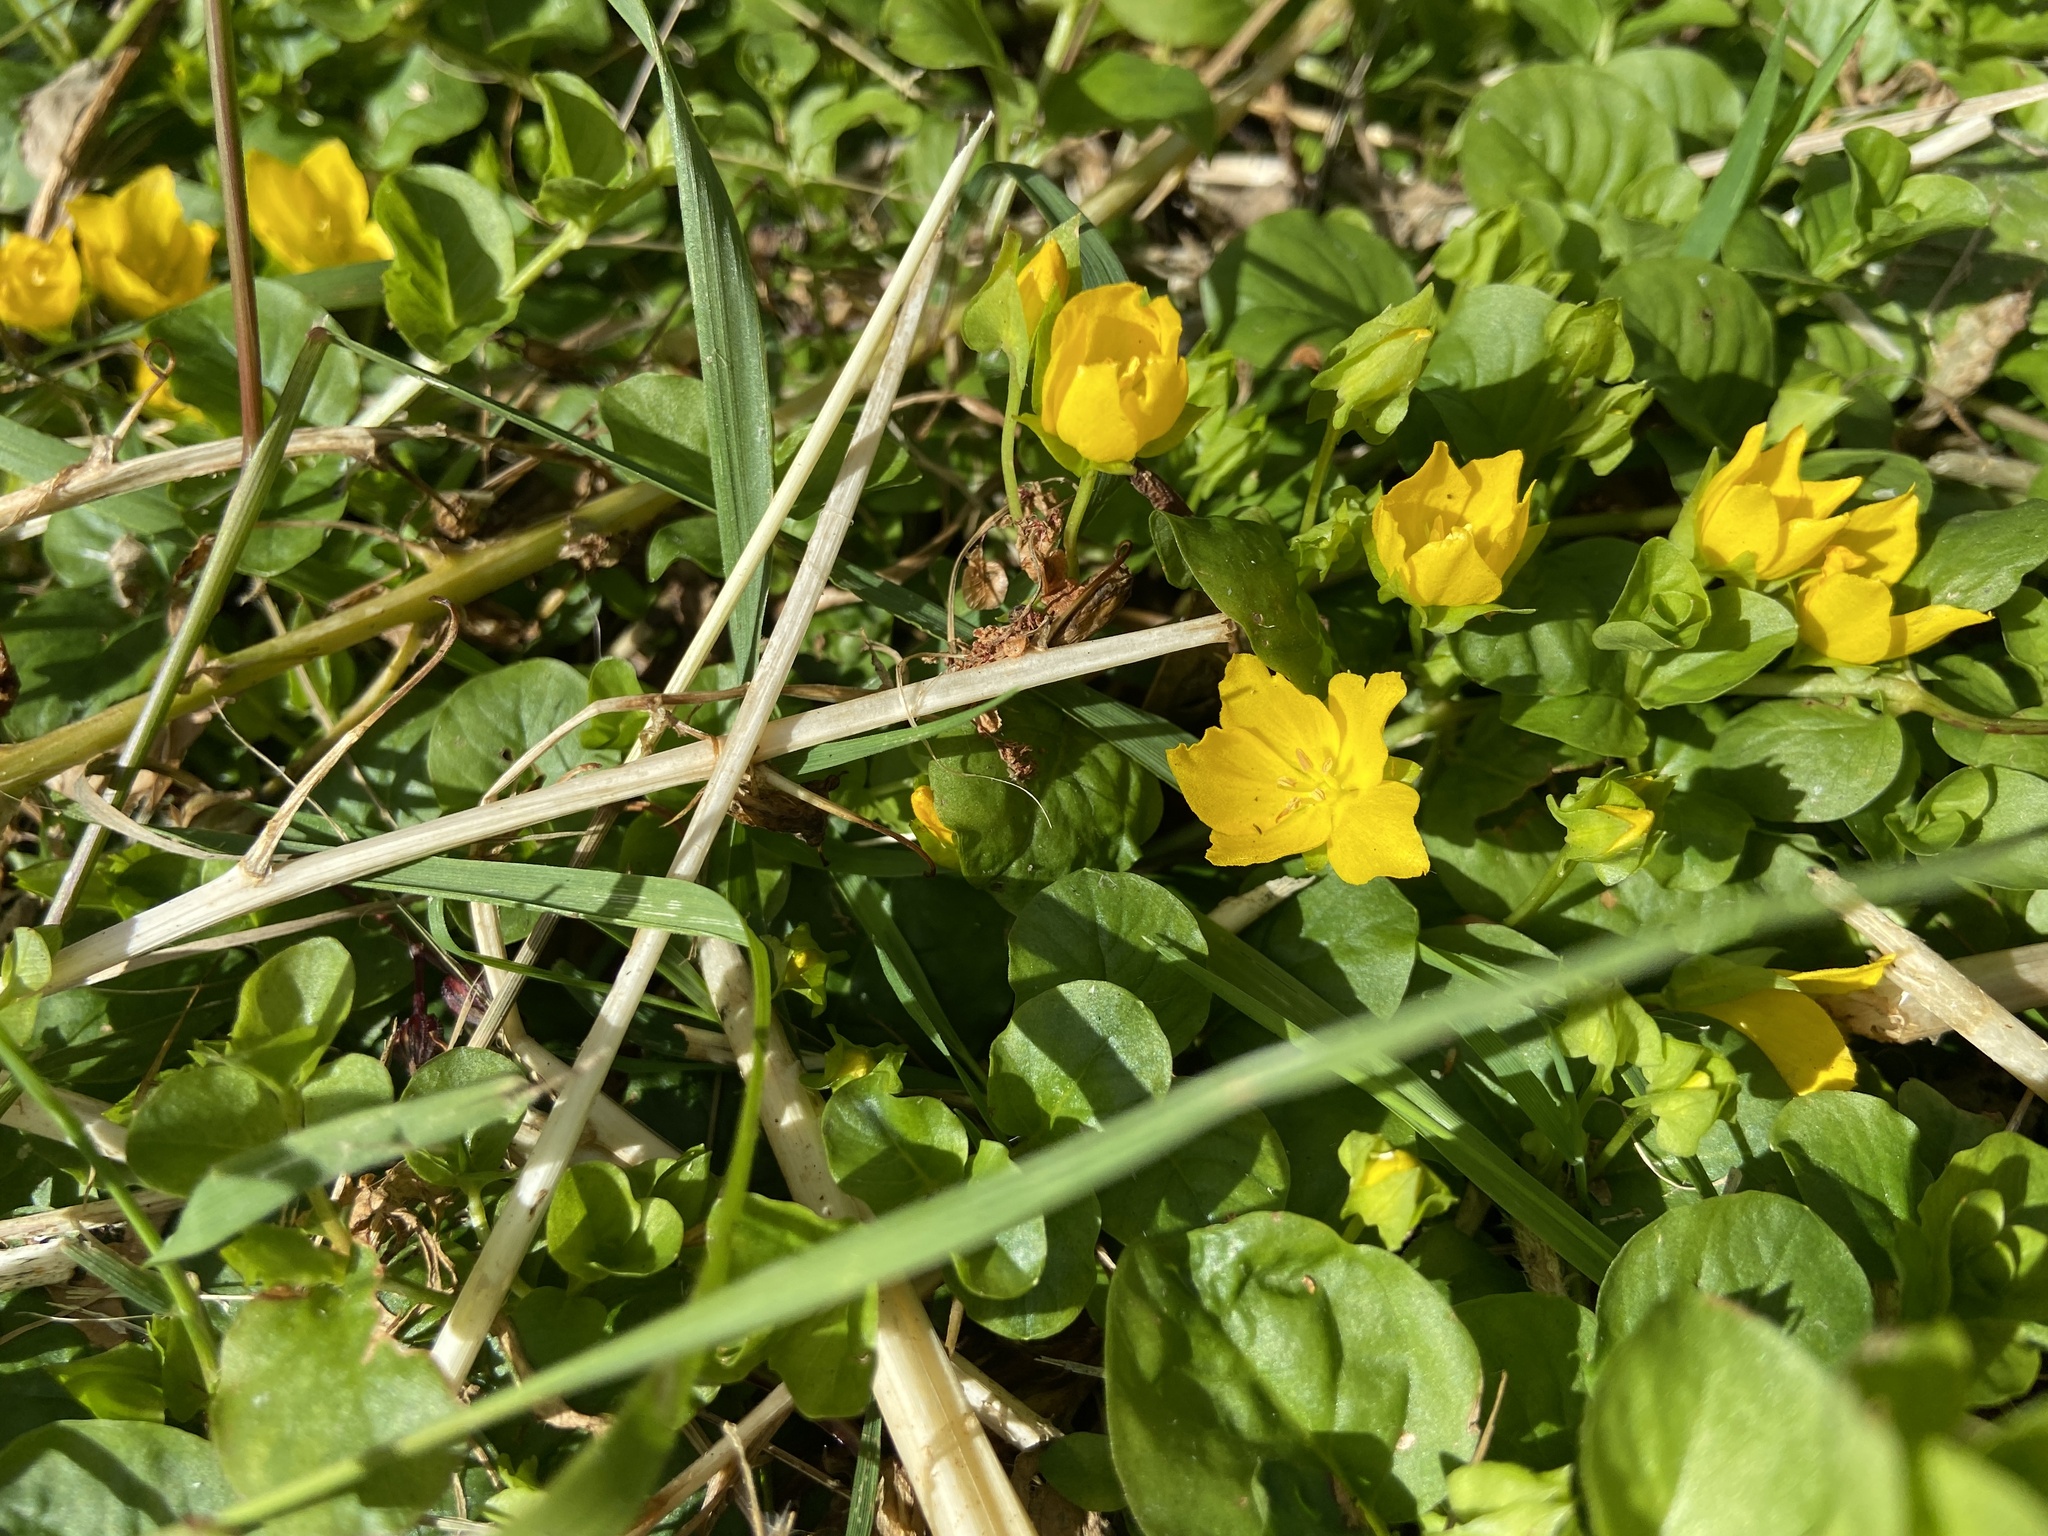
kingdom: Plantae
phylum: Tracheophyta
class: Magnoliopsida
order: Ericales
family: Primulaceae
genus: Lysimachia
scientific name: Lysimachia nummularia
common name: Moneywort
